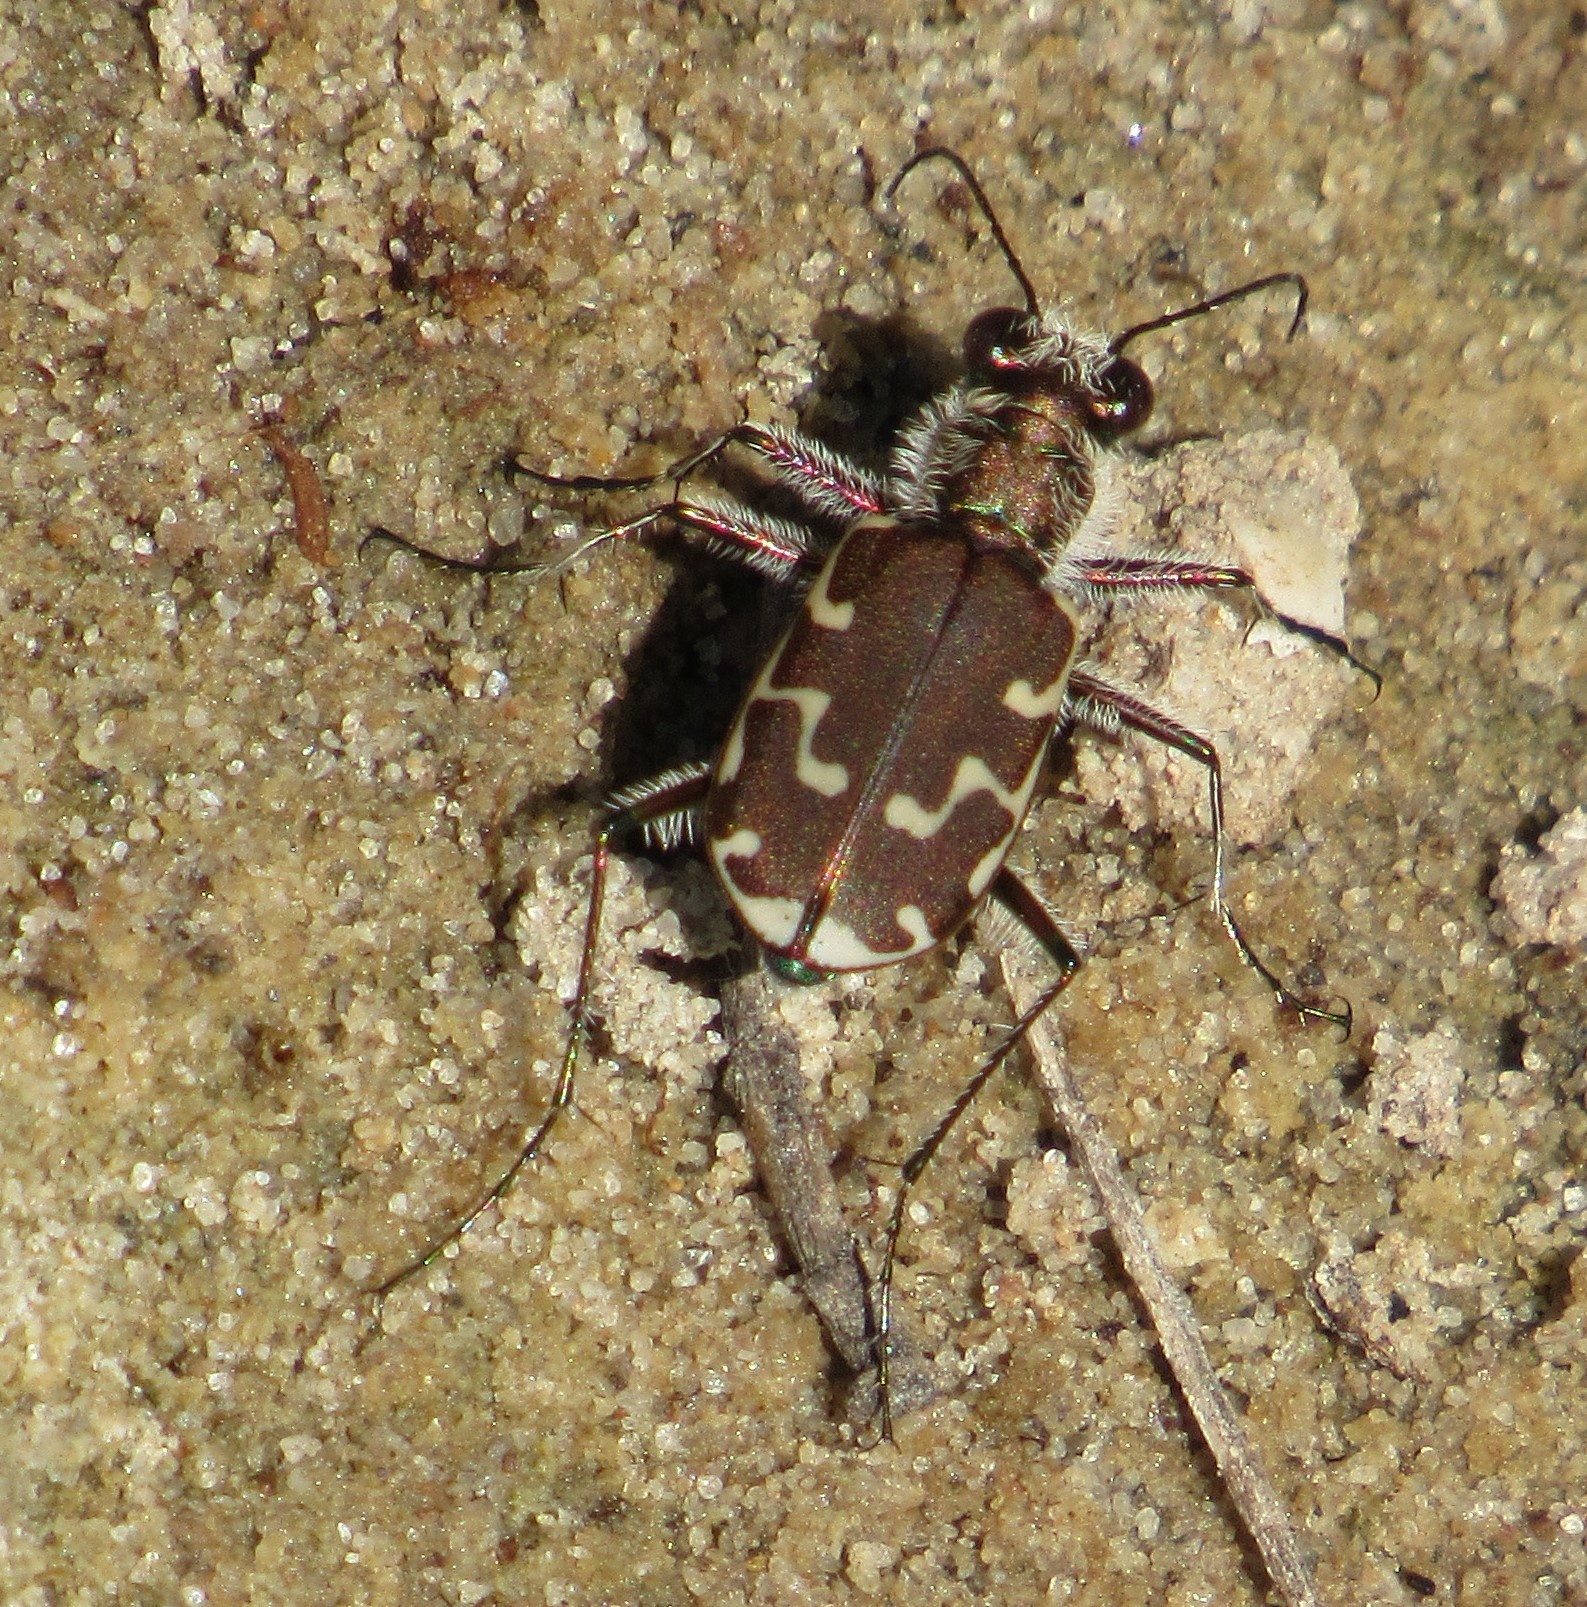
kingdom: Animalia
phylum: Arthropoda
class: Insecta
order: Coleoptera
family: Carabidae
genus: Cicindela
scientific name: Cicindela repanda
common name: Bronzed tiger beetle
